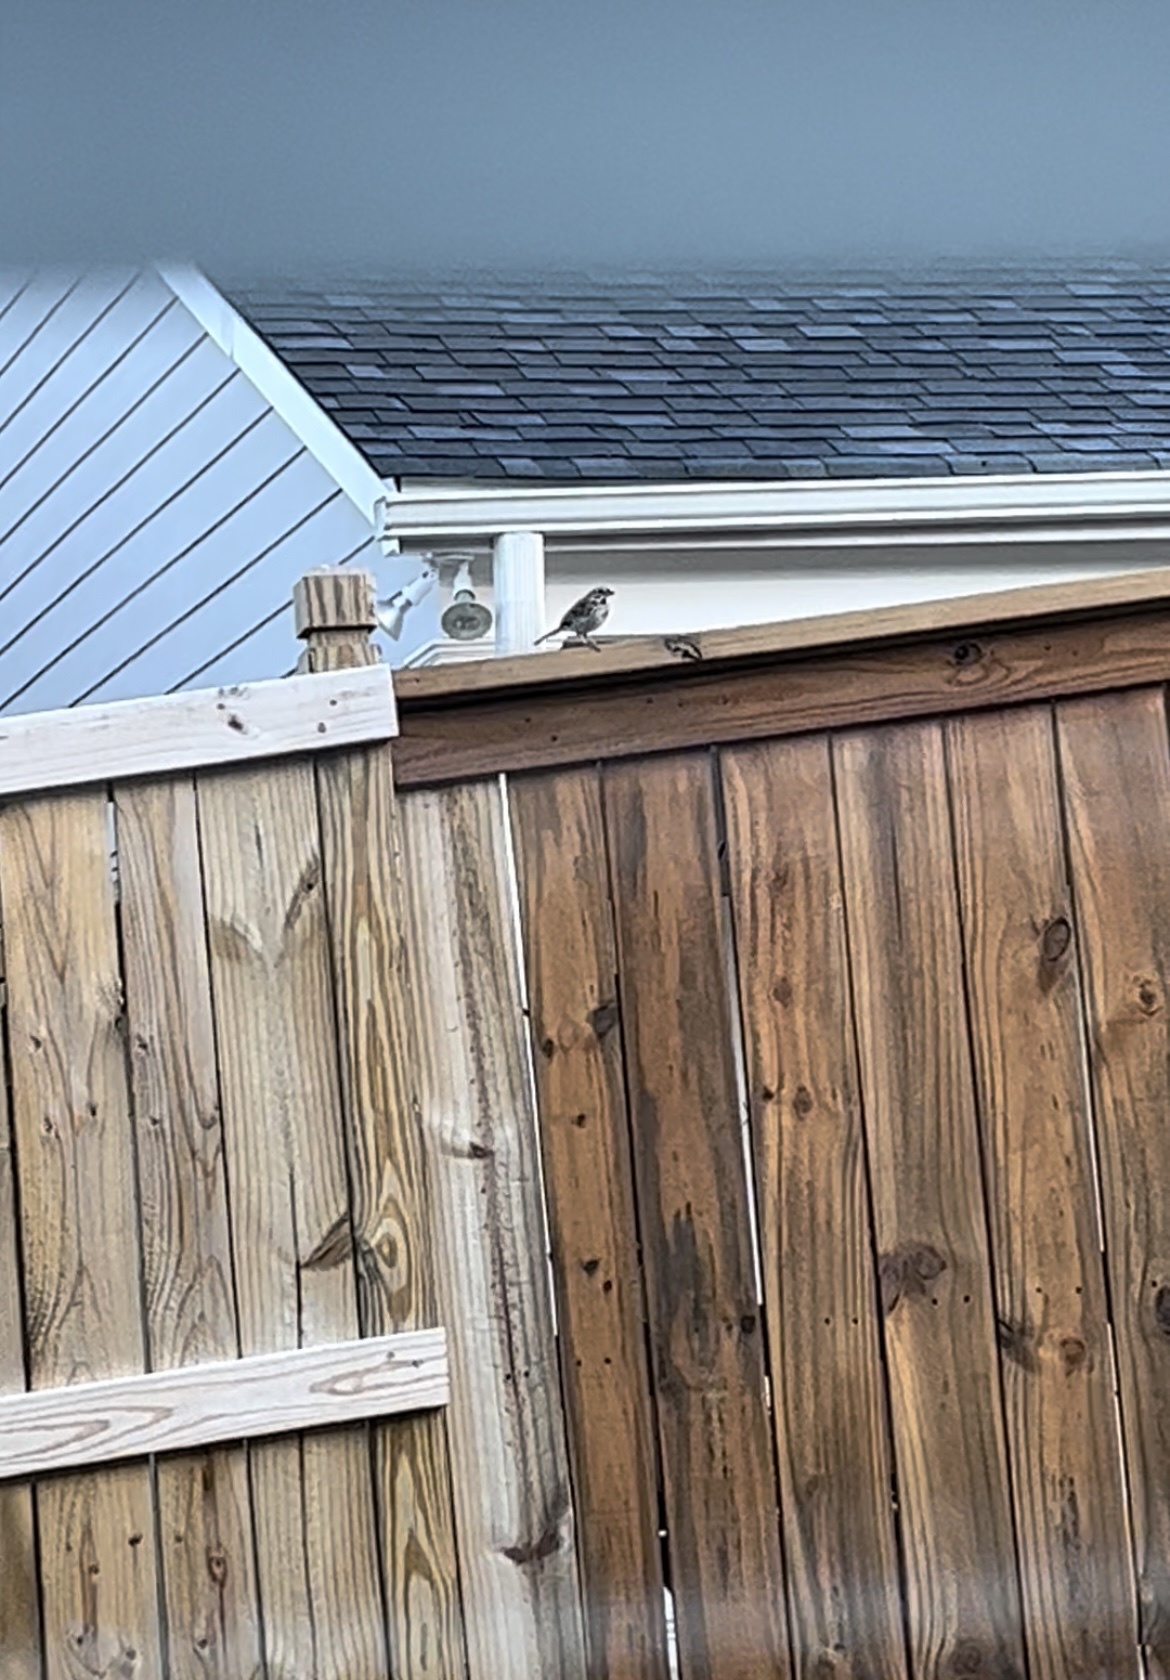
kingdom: Animalia
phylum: Chordata
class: Aves
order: Passeriformes
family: Passerellidae
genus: Melospiza
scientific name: Melospiza melodia
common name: Song sparrow
